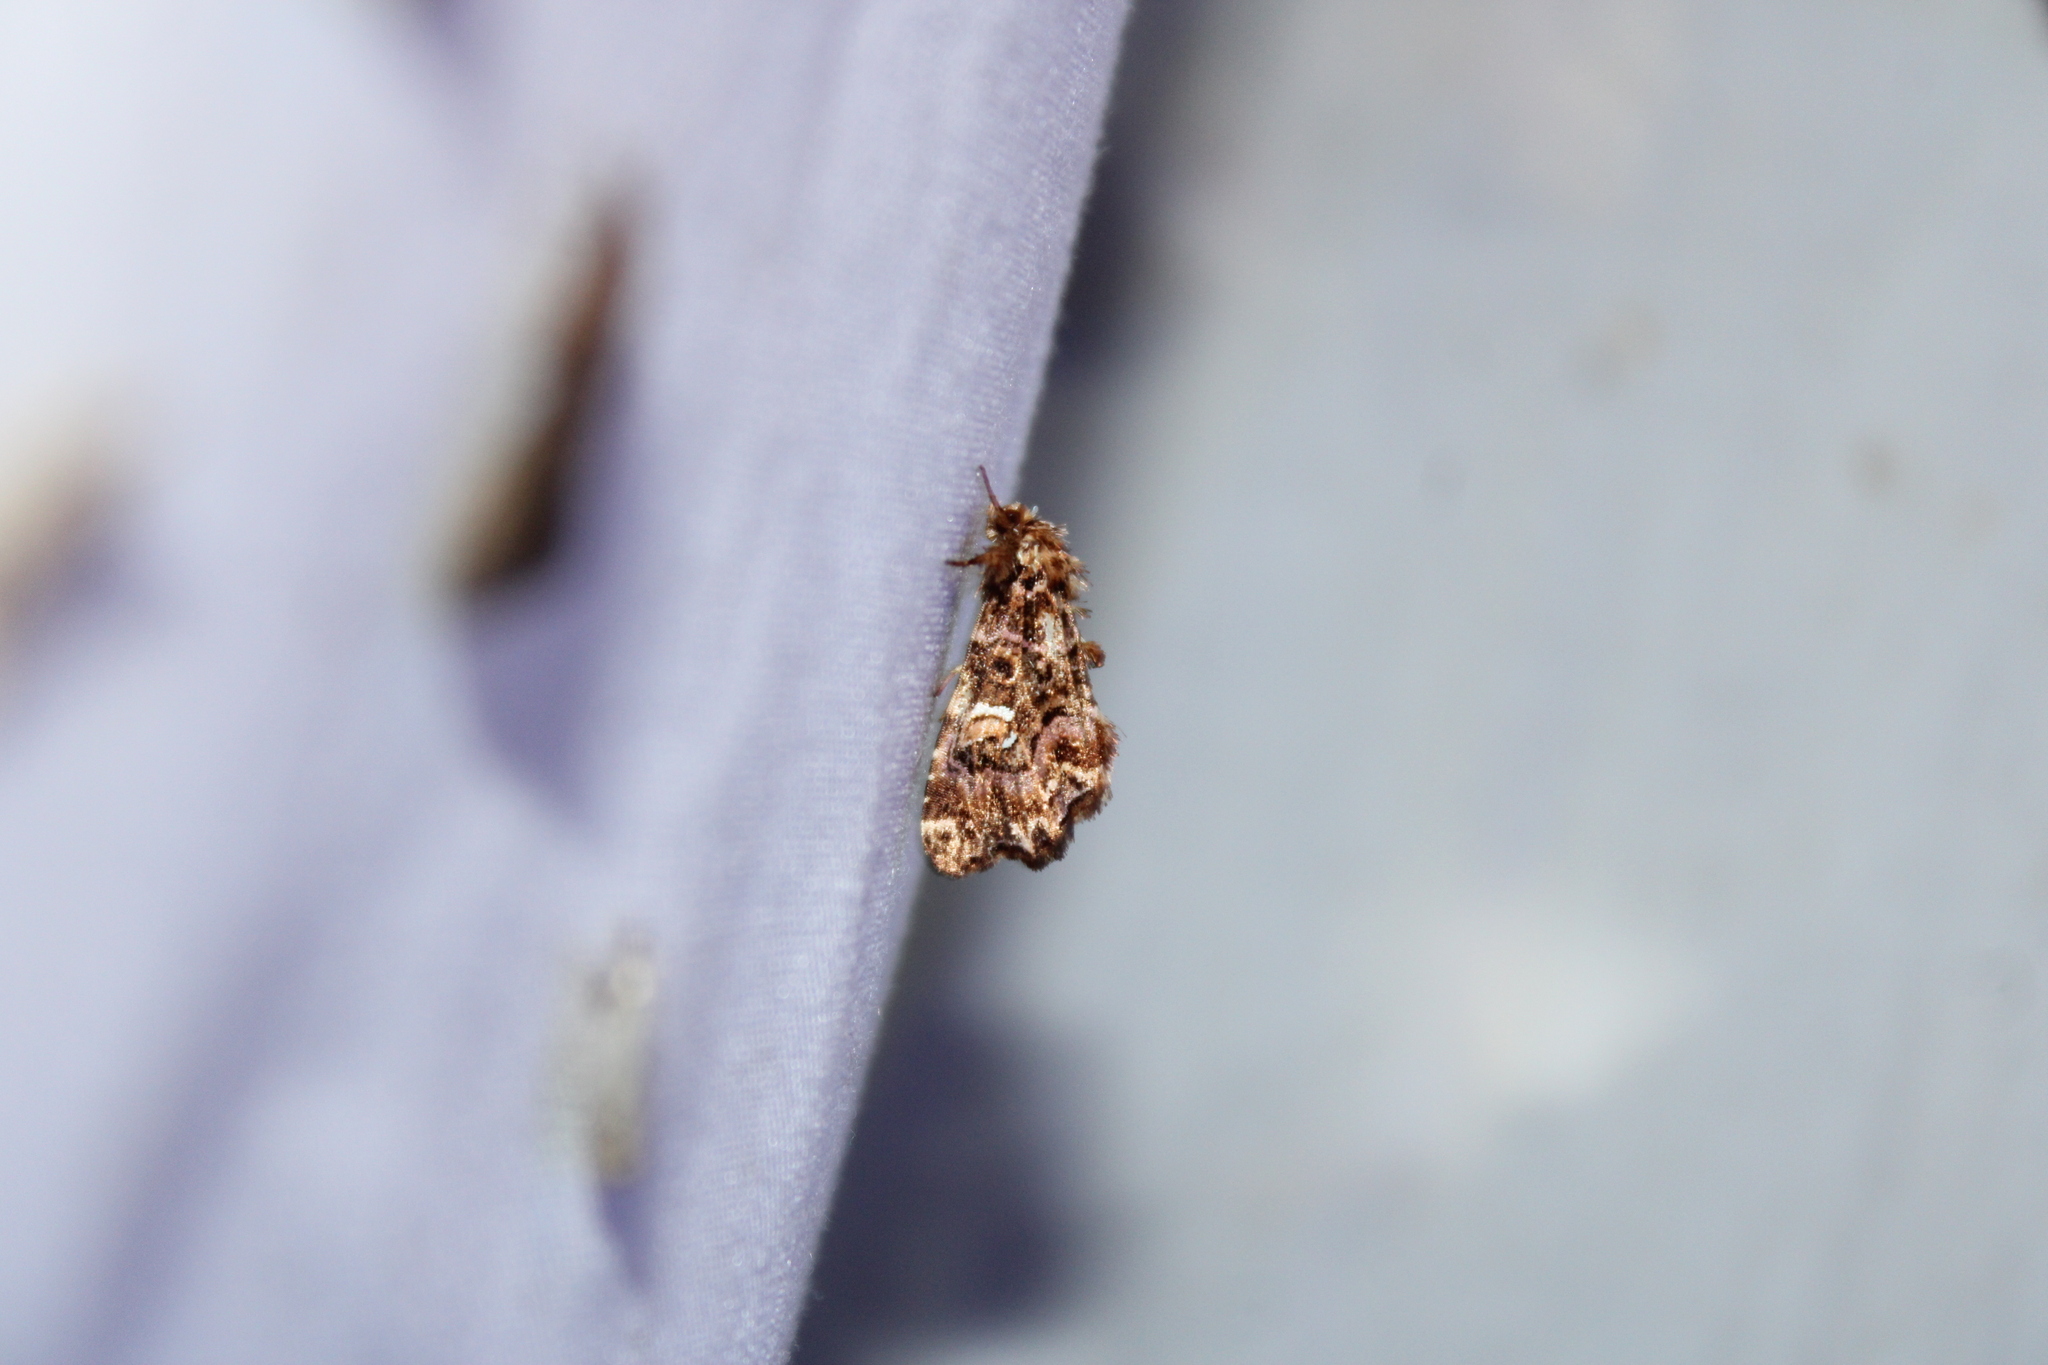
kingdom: Animalia
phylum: Arthropoda
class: Insecta
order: Lepidoptera
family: Noctuidae
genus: Callopistria
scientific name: Callopistria mollissima
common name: Pink-shaded fern moth
